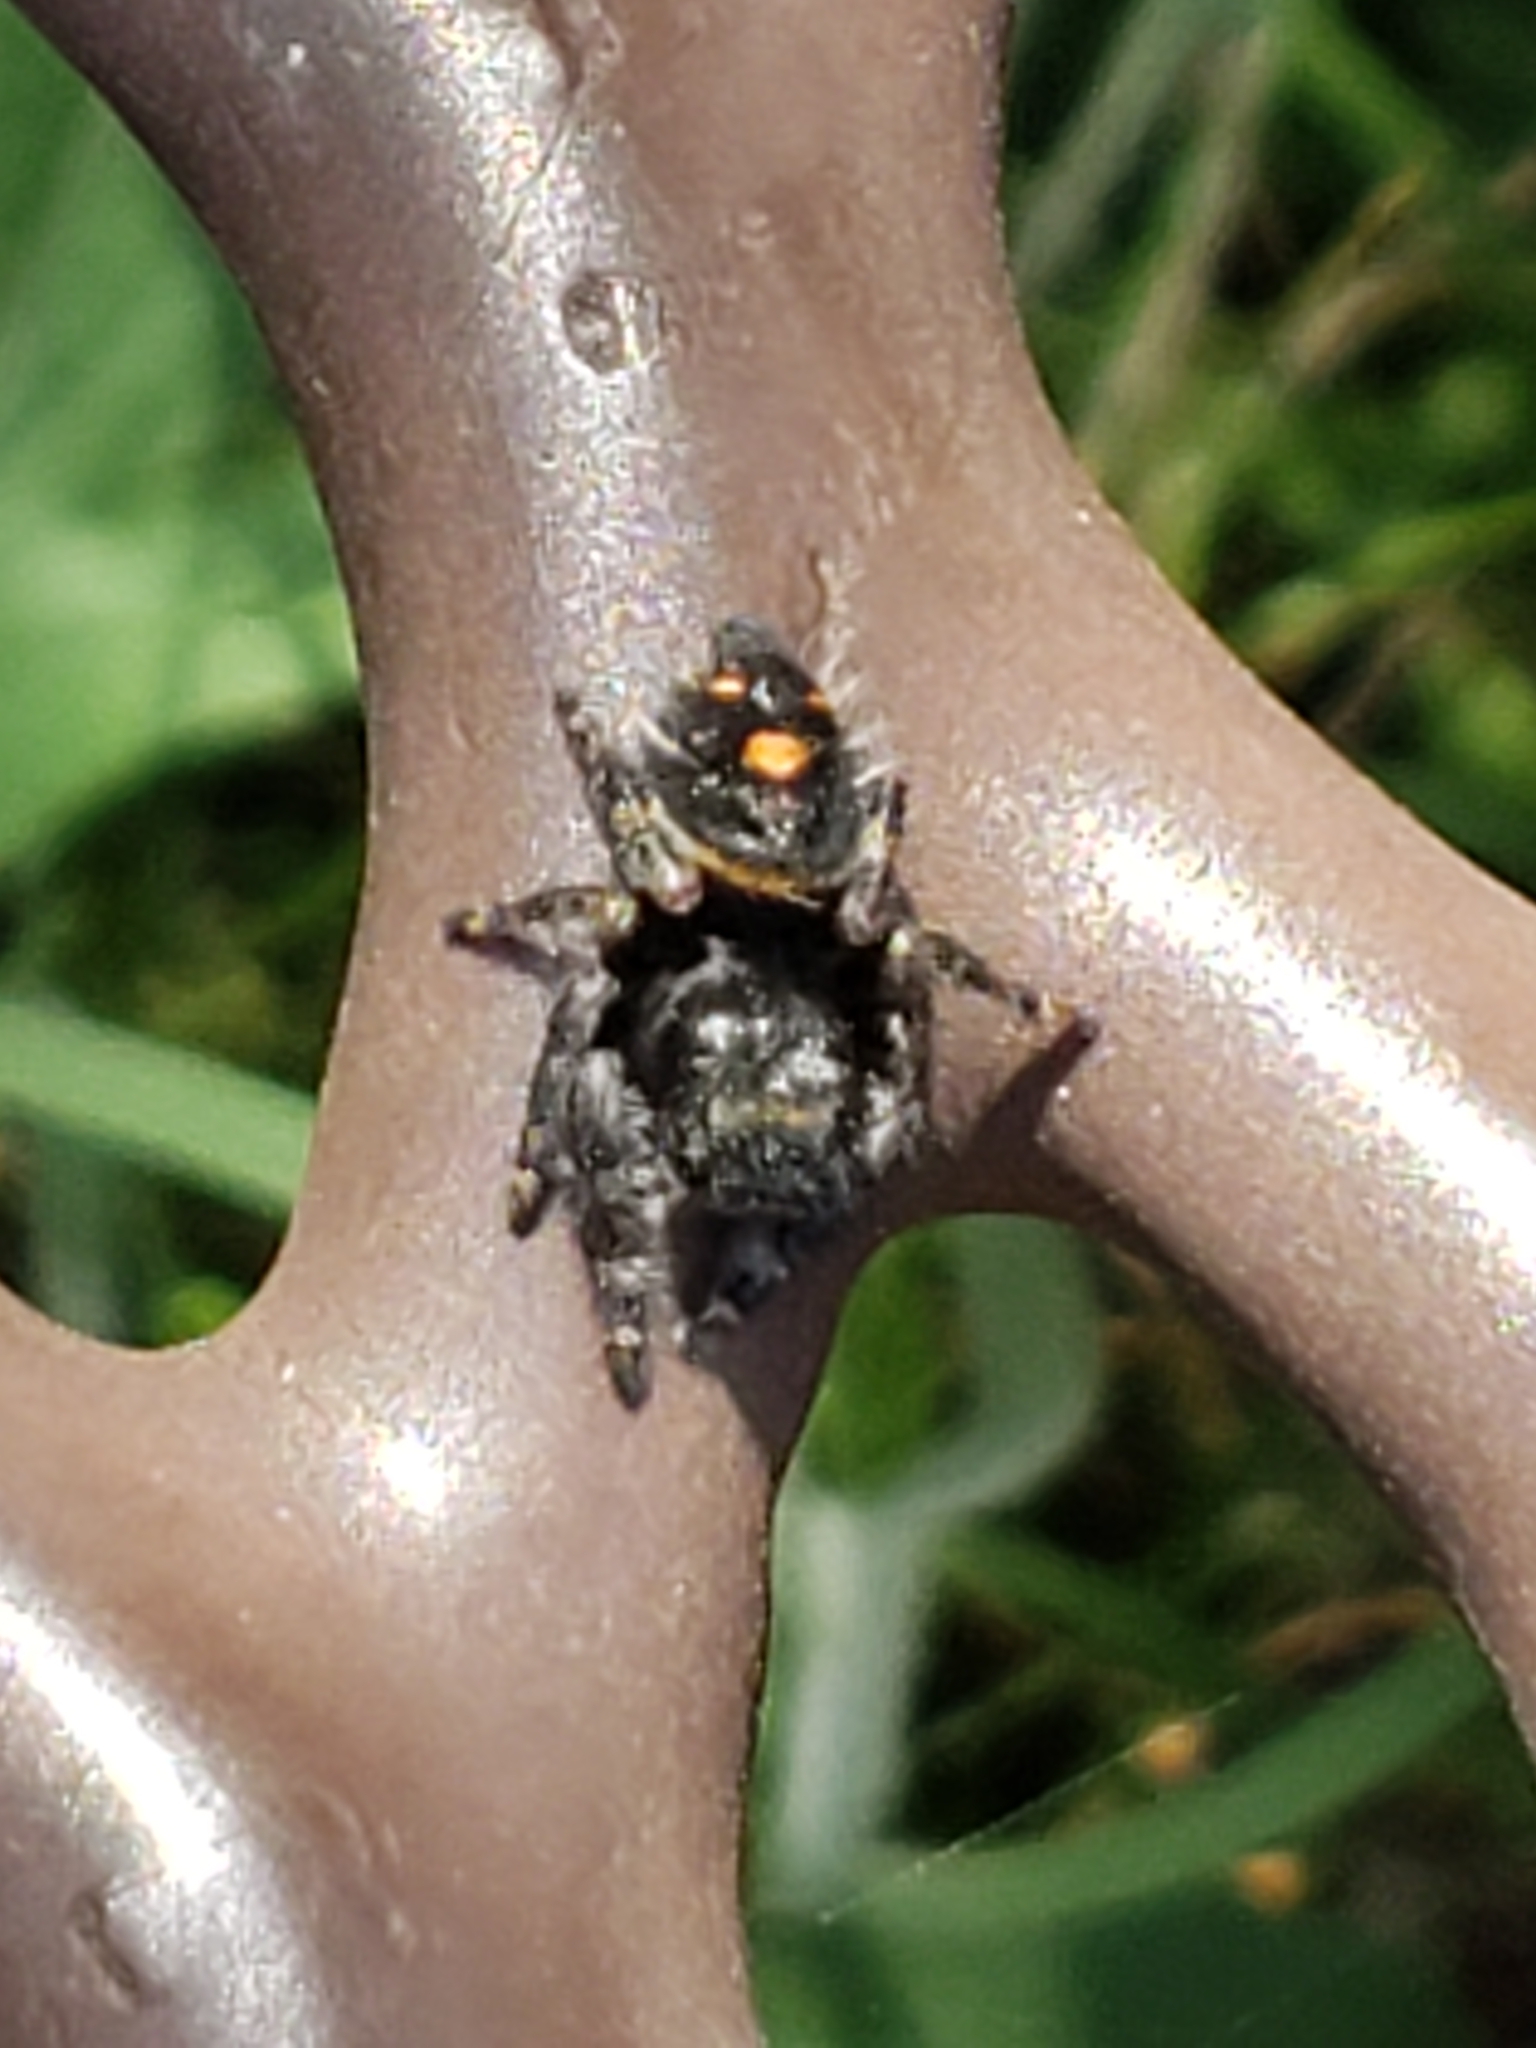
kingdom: Animalia
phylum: Arthropoda
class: Arachnida
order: Araneae
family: Salticidae
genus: Phidippus
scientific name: Phidippus audax
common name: Bold jumper
